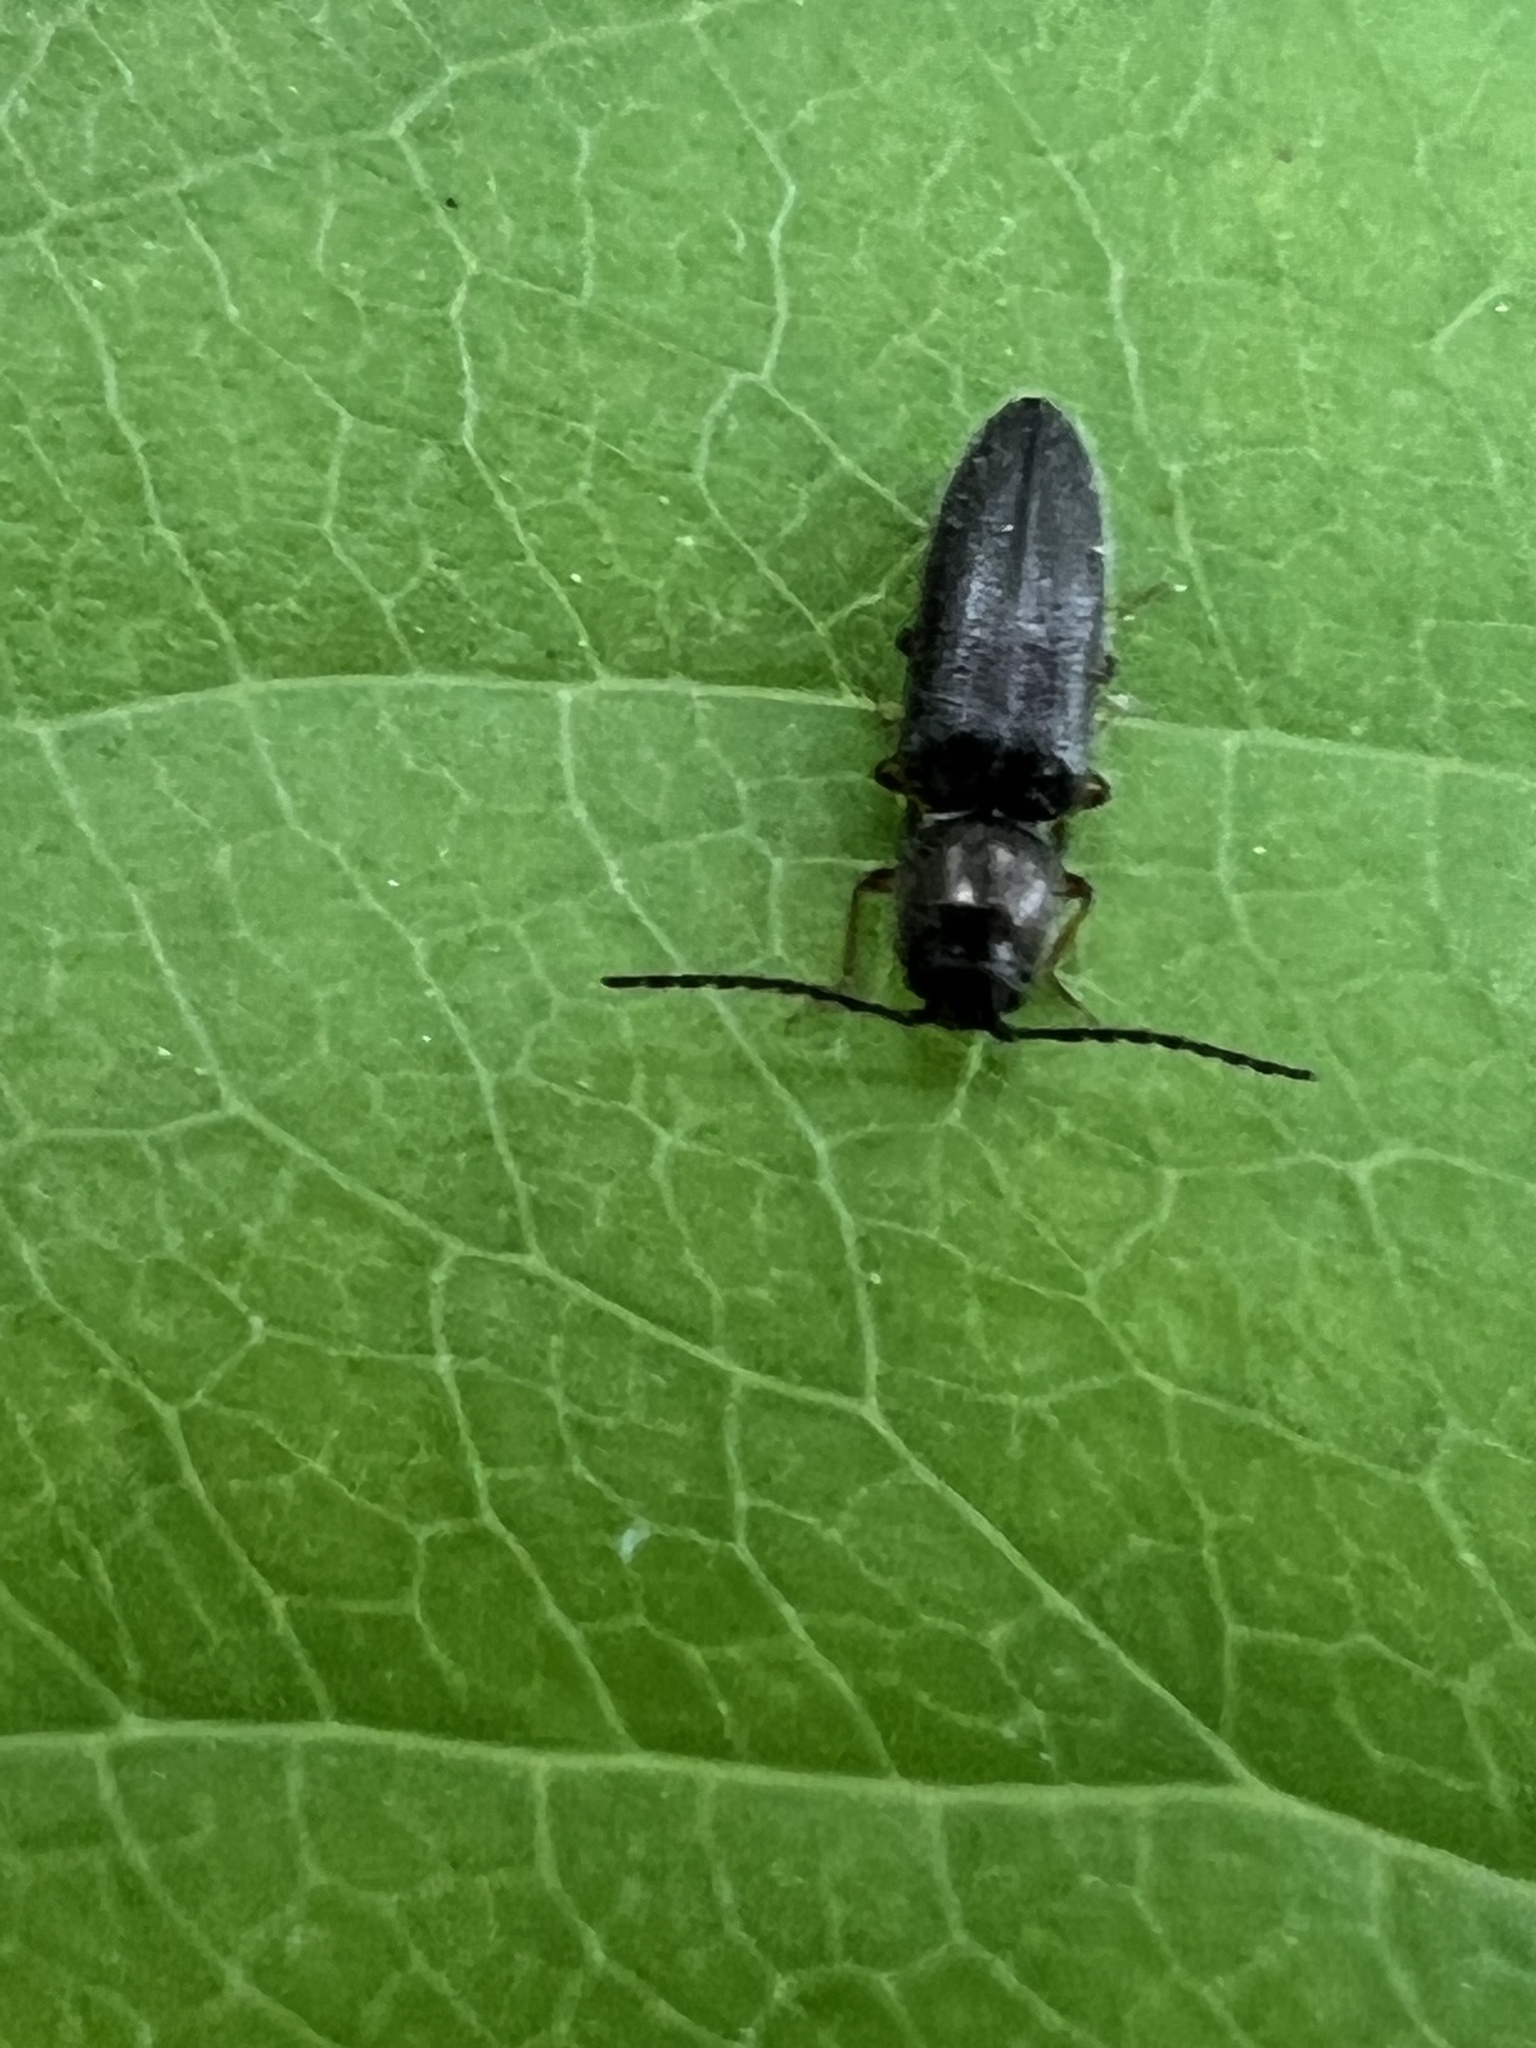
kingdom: Animalia
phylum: Arthropoda
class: Insecta
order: Coleoptera
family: Elateridae
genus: Limonius
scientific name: Limonius quercinus
